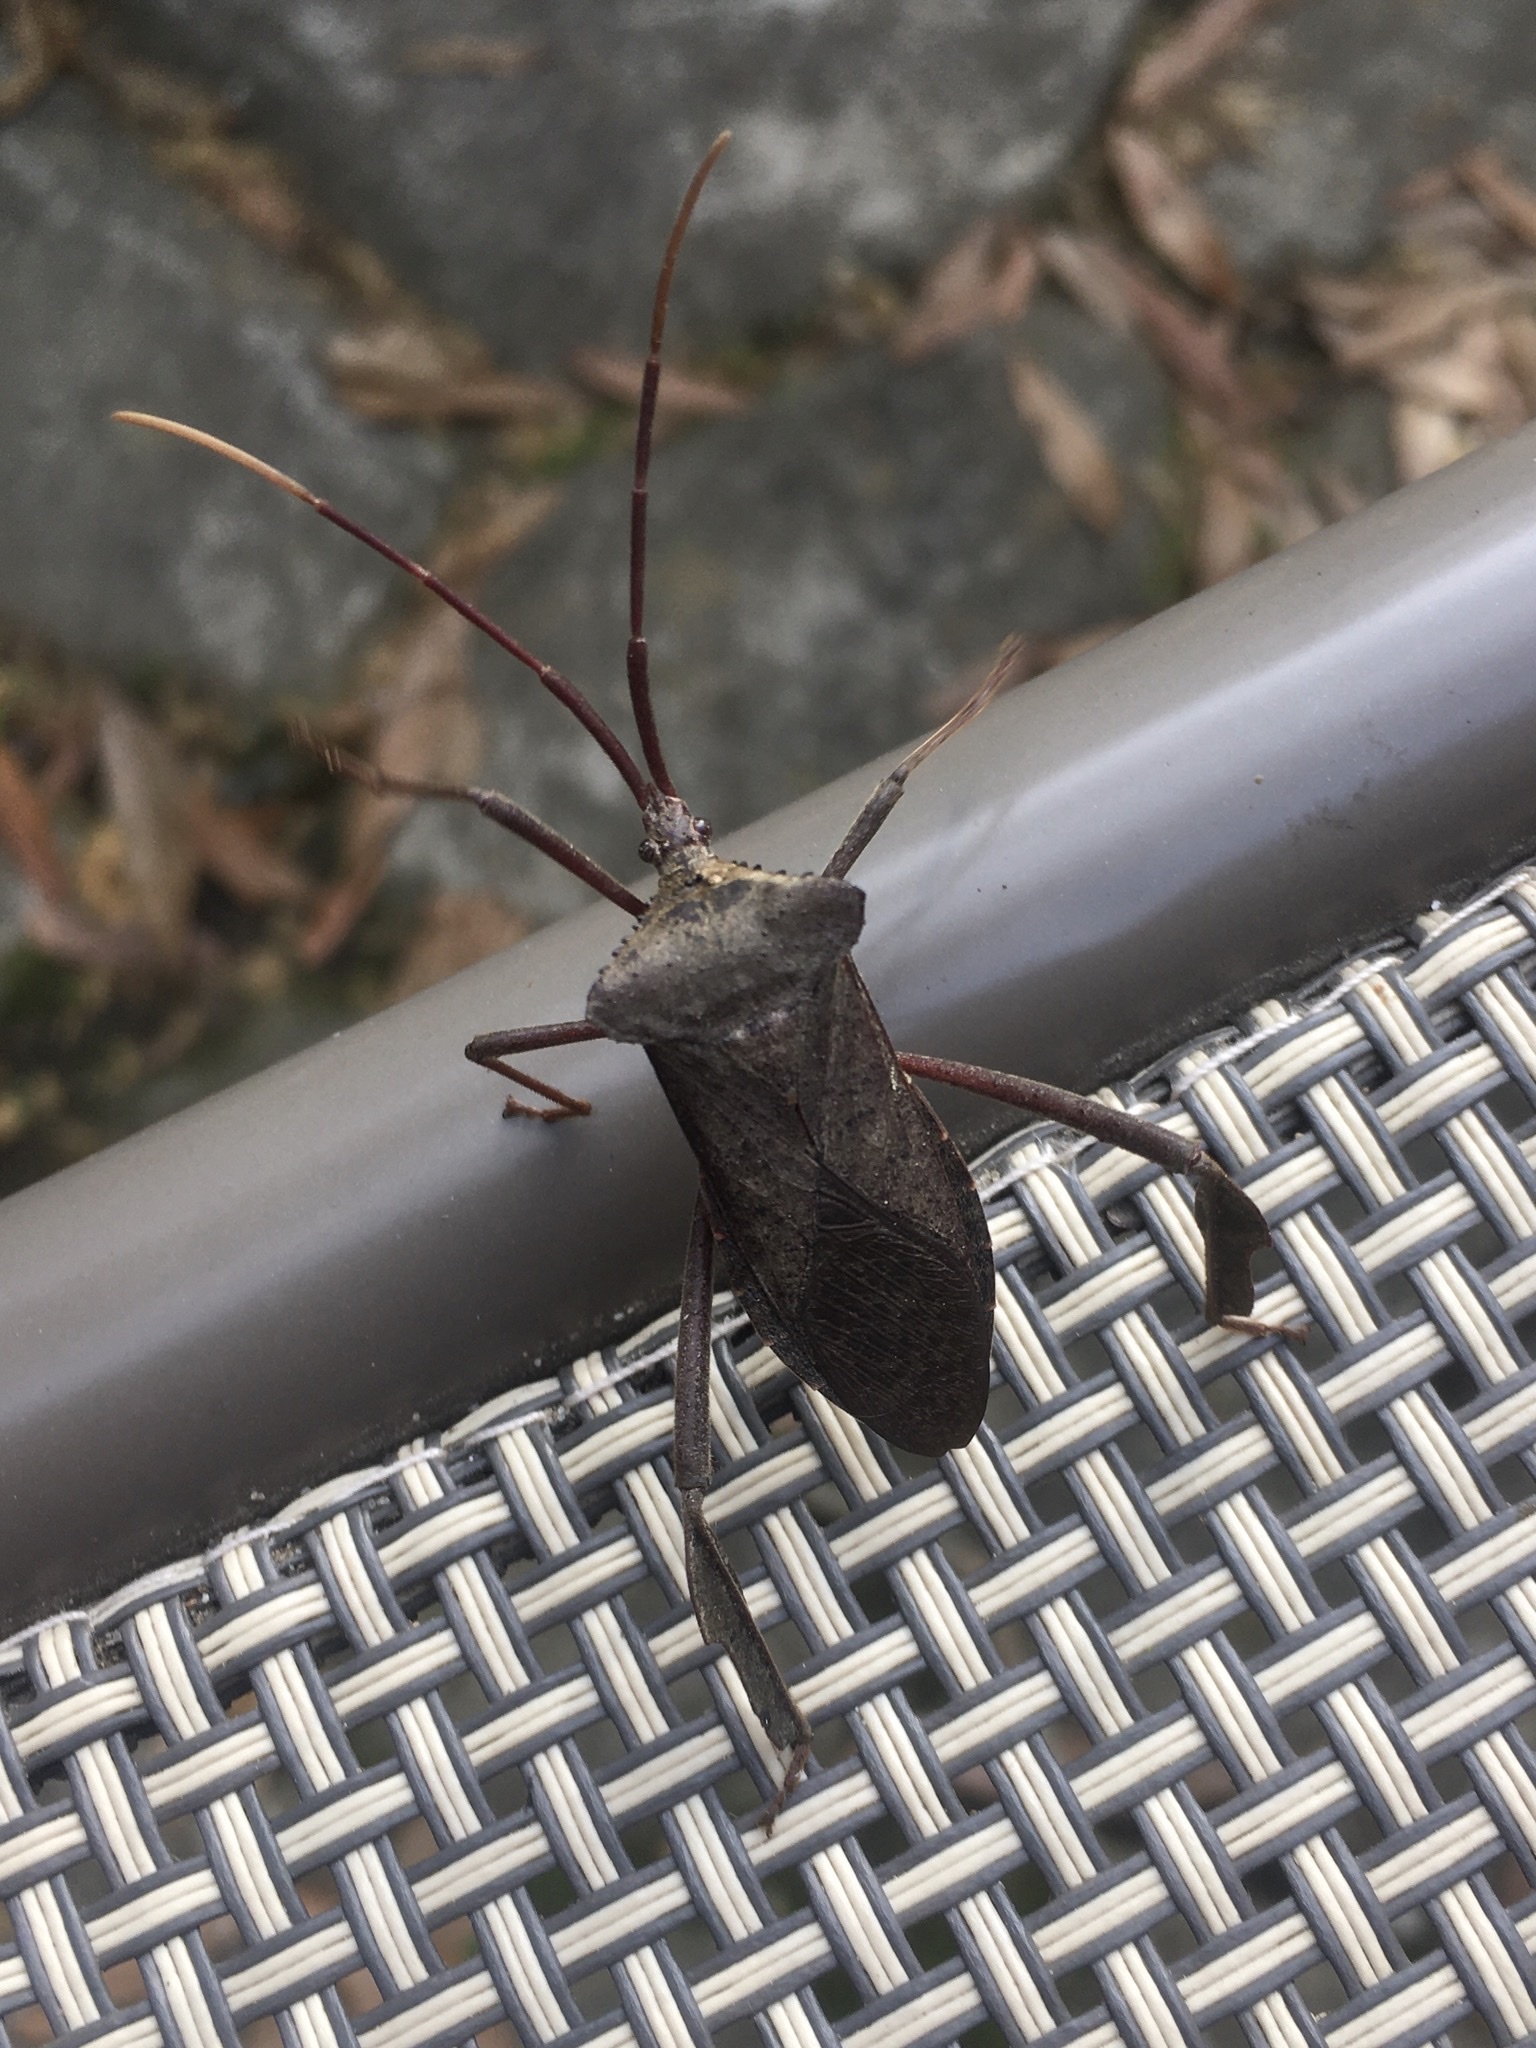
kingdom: Animalia
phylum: Arthropoda
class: Insecta
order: Hemiptera
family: Coreidae
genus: Acanthocephala
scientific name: Acanthocephala declivis
